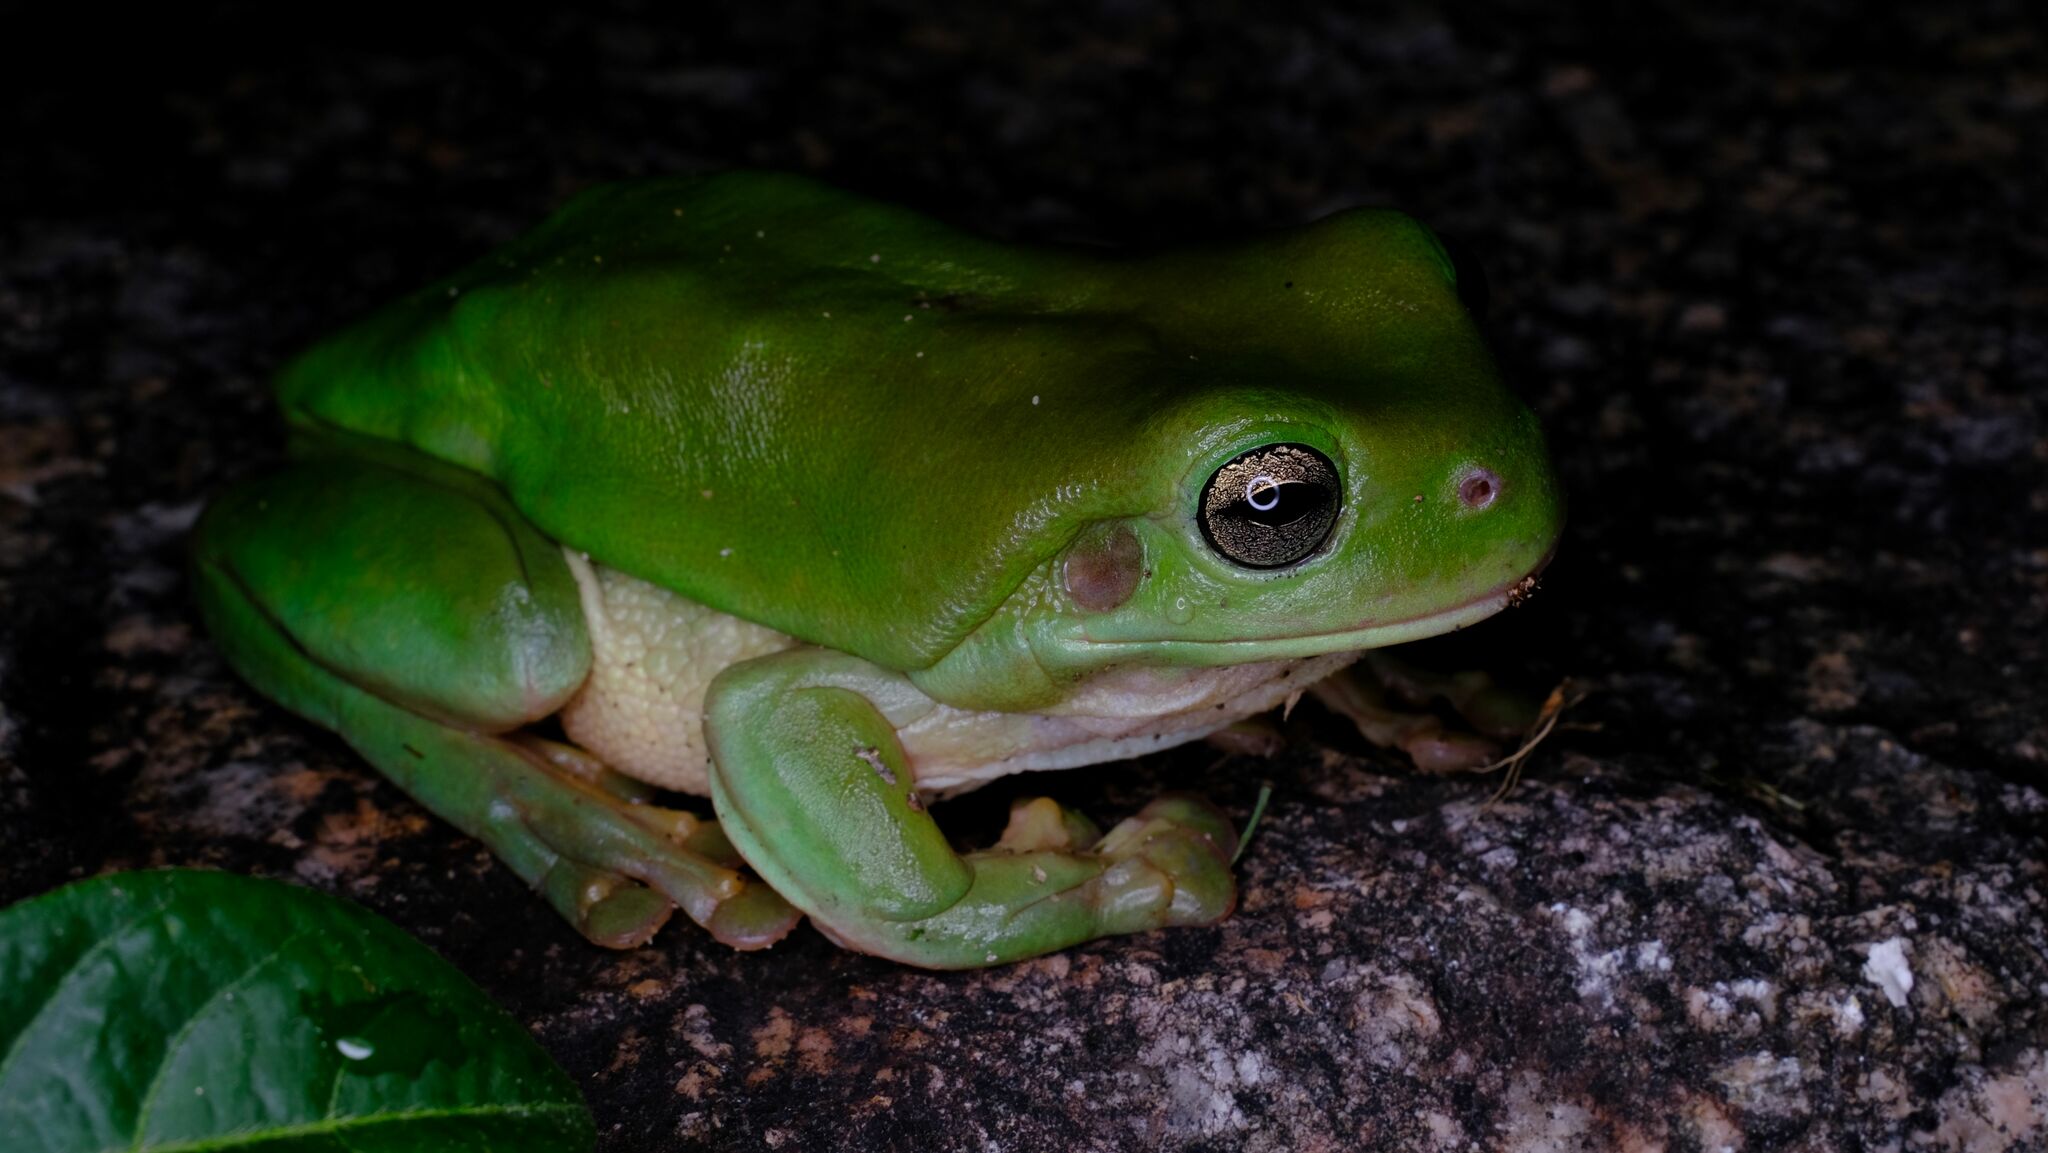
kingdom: Animalia
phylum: Chordata
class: Amphibia
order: Anura
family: Pelodryadidae
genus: Ranoidea
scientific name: Ranoidea caerulea
